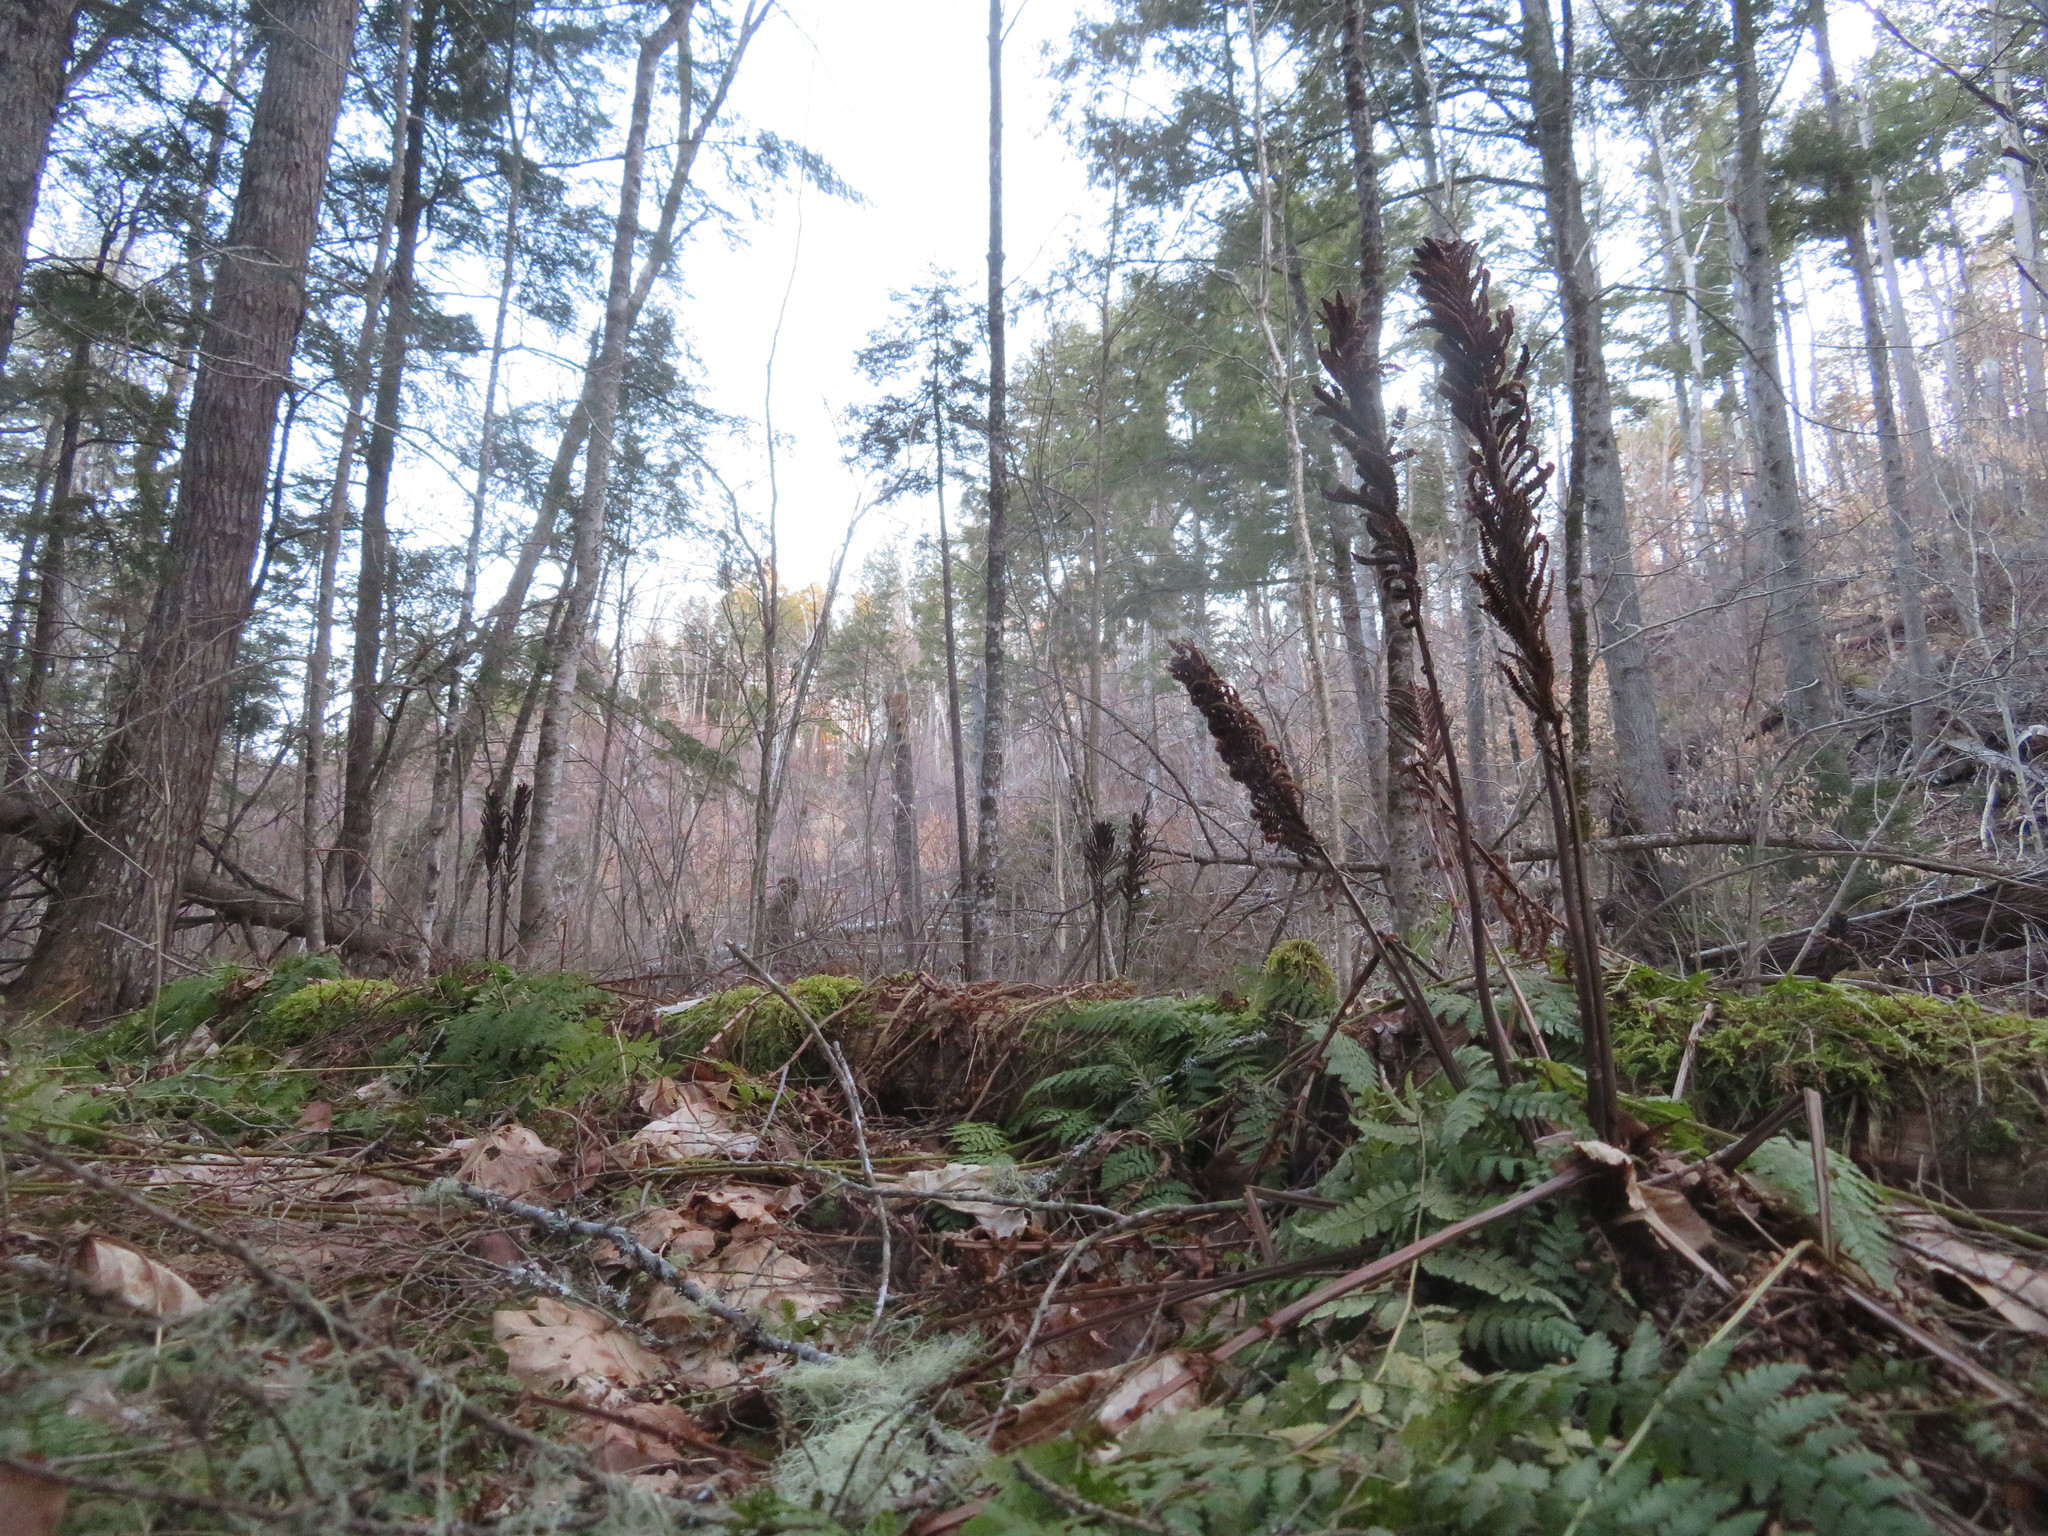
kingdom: Plantae
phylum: Tracheophyta
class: Polypodiopsida
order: Polypodiales
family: Onocleaceae
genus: Matteuccia
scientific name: Matteuccia struthiopteris
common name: Ostrich fern
